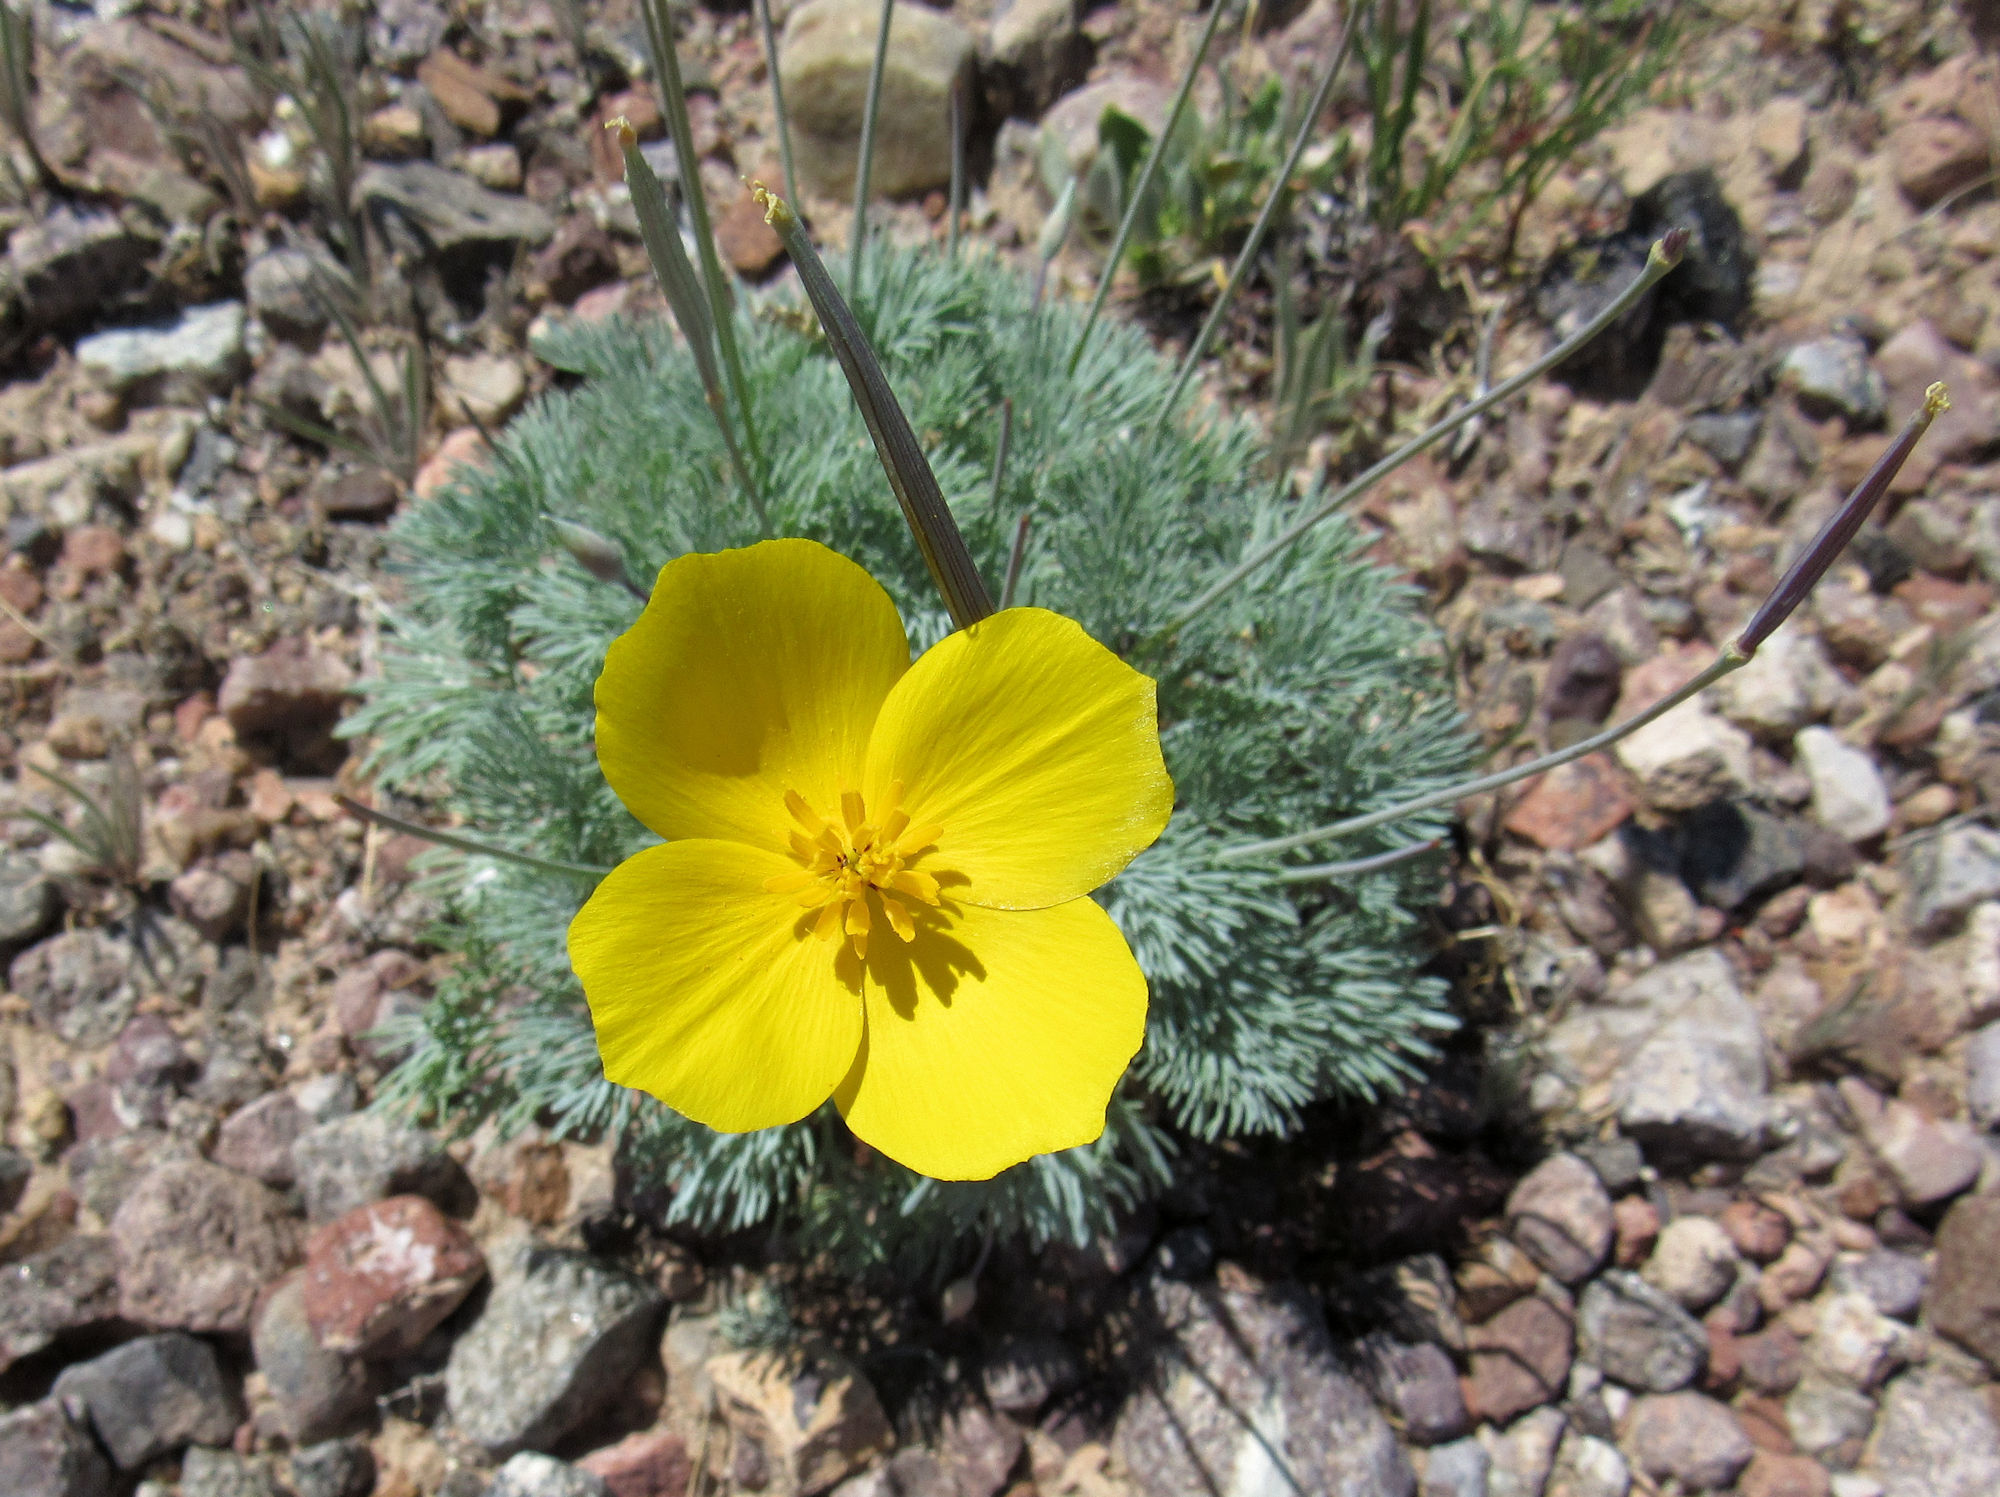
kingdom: Plantae
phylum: Tracheophyta
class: Magnoliopsida
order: Ranunculales
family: Papaveraceae
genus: Eschscholzia
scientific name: Eschscholzia glyptosperma
